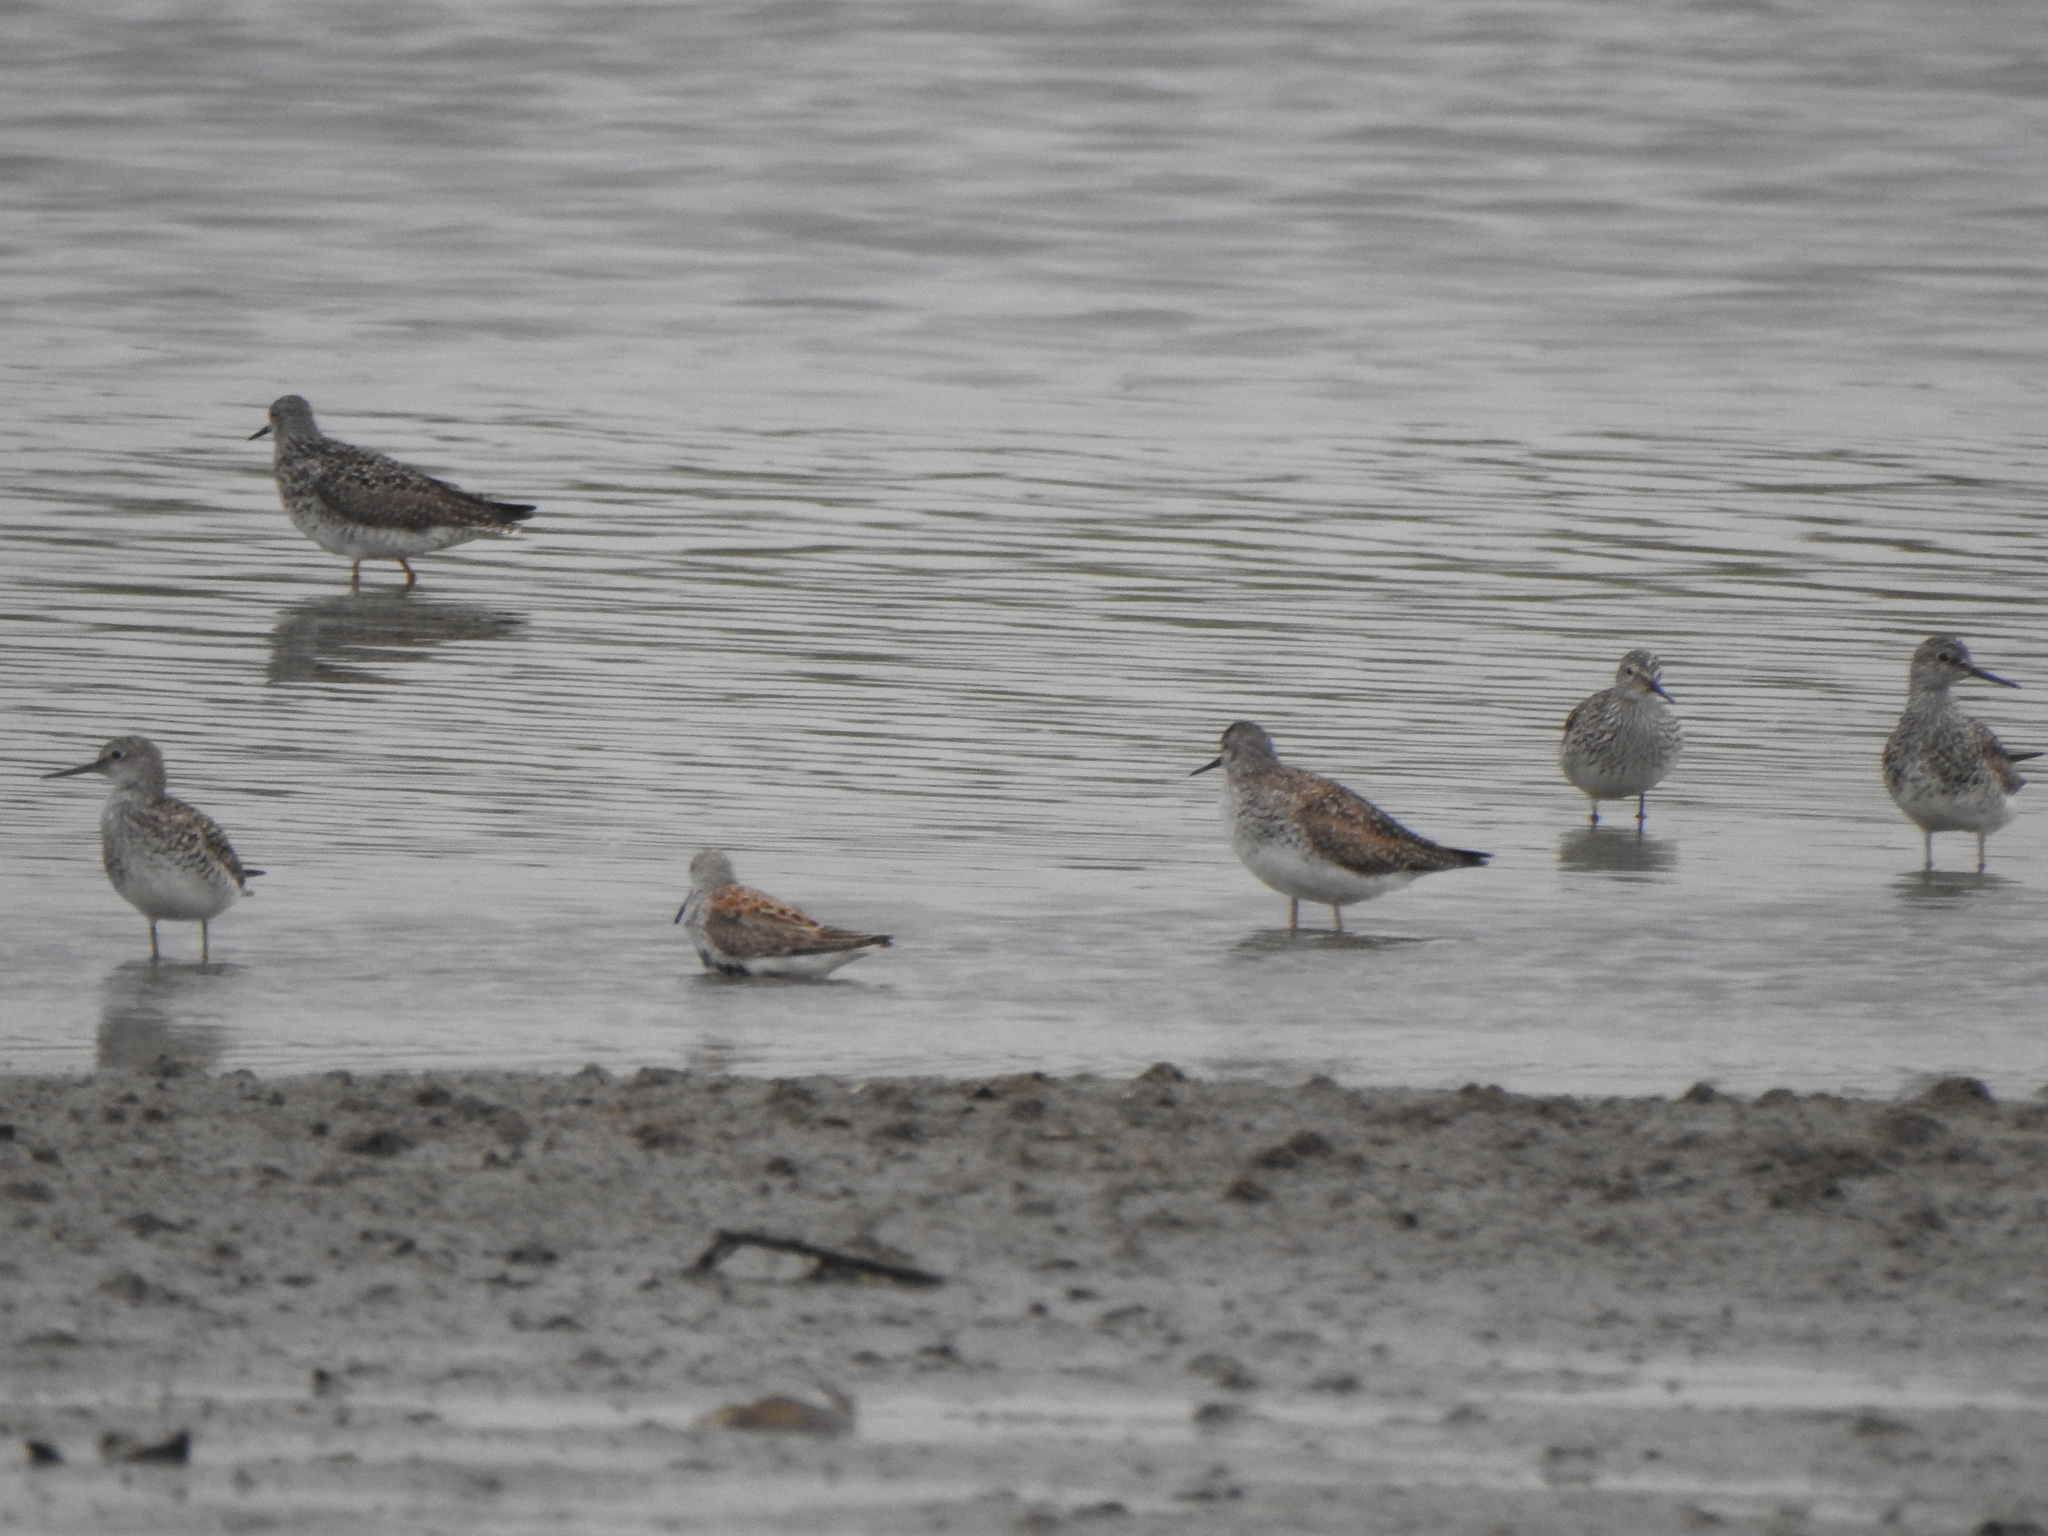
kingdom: Animalia
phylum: Chordata
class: Aves
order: Charadriiformes
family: Scolopacidae
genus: Calidris
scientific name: Calidris alpina
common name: Dunlin
